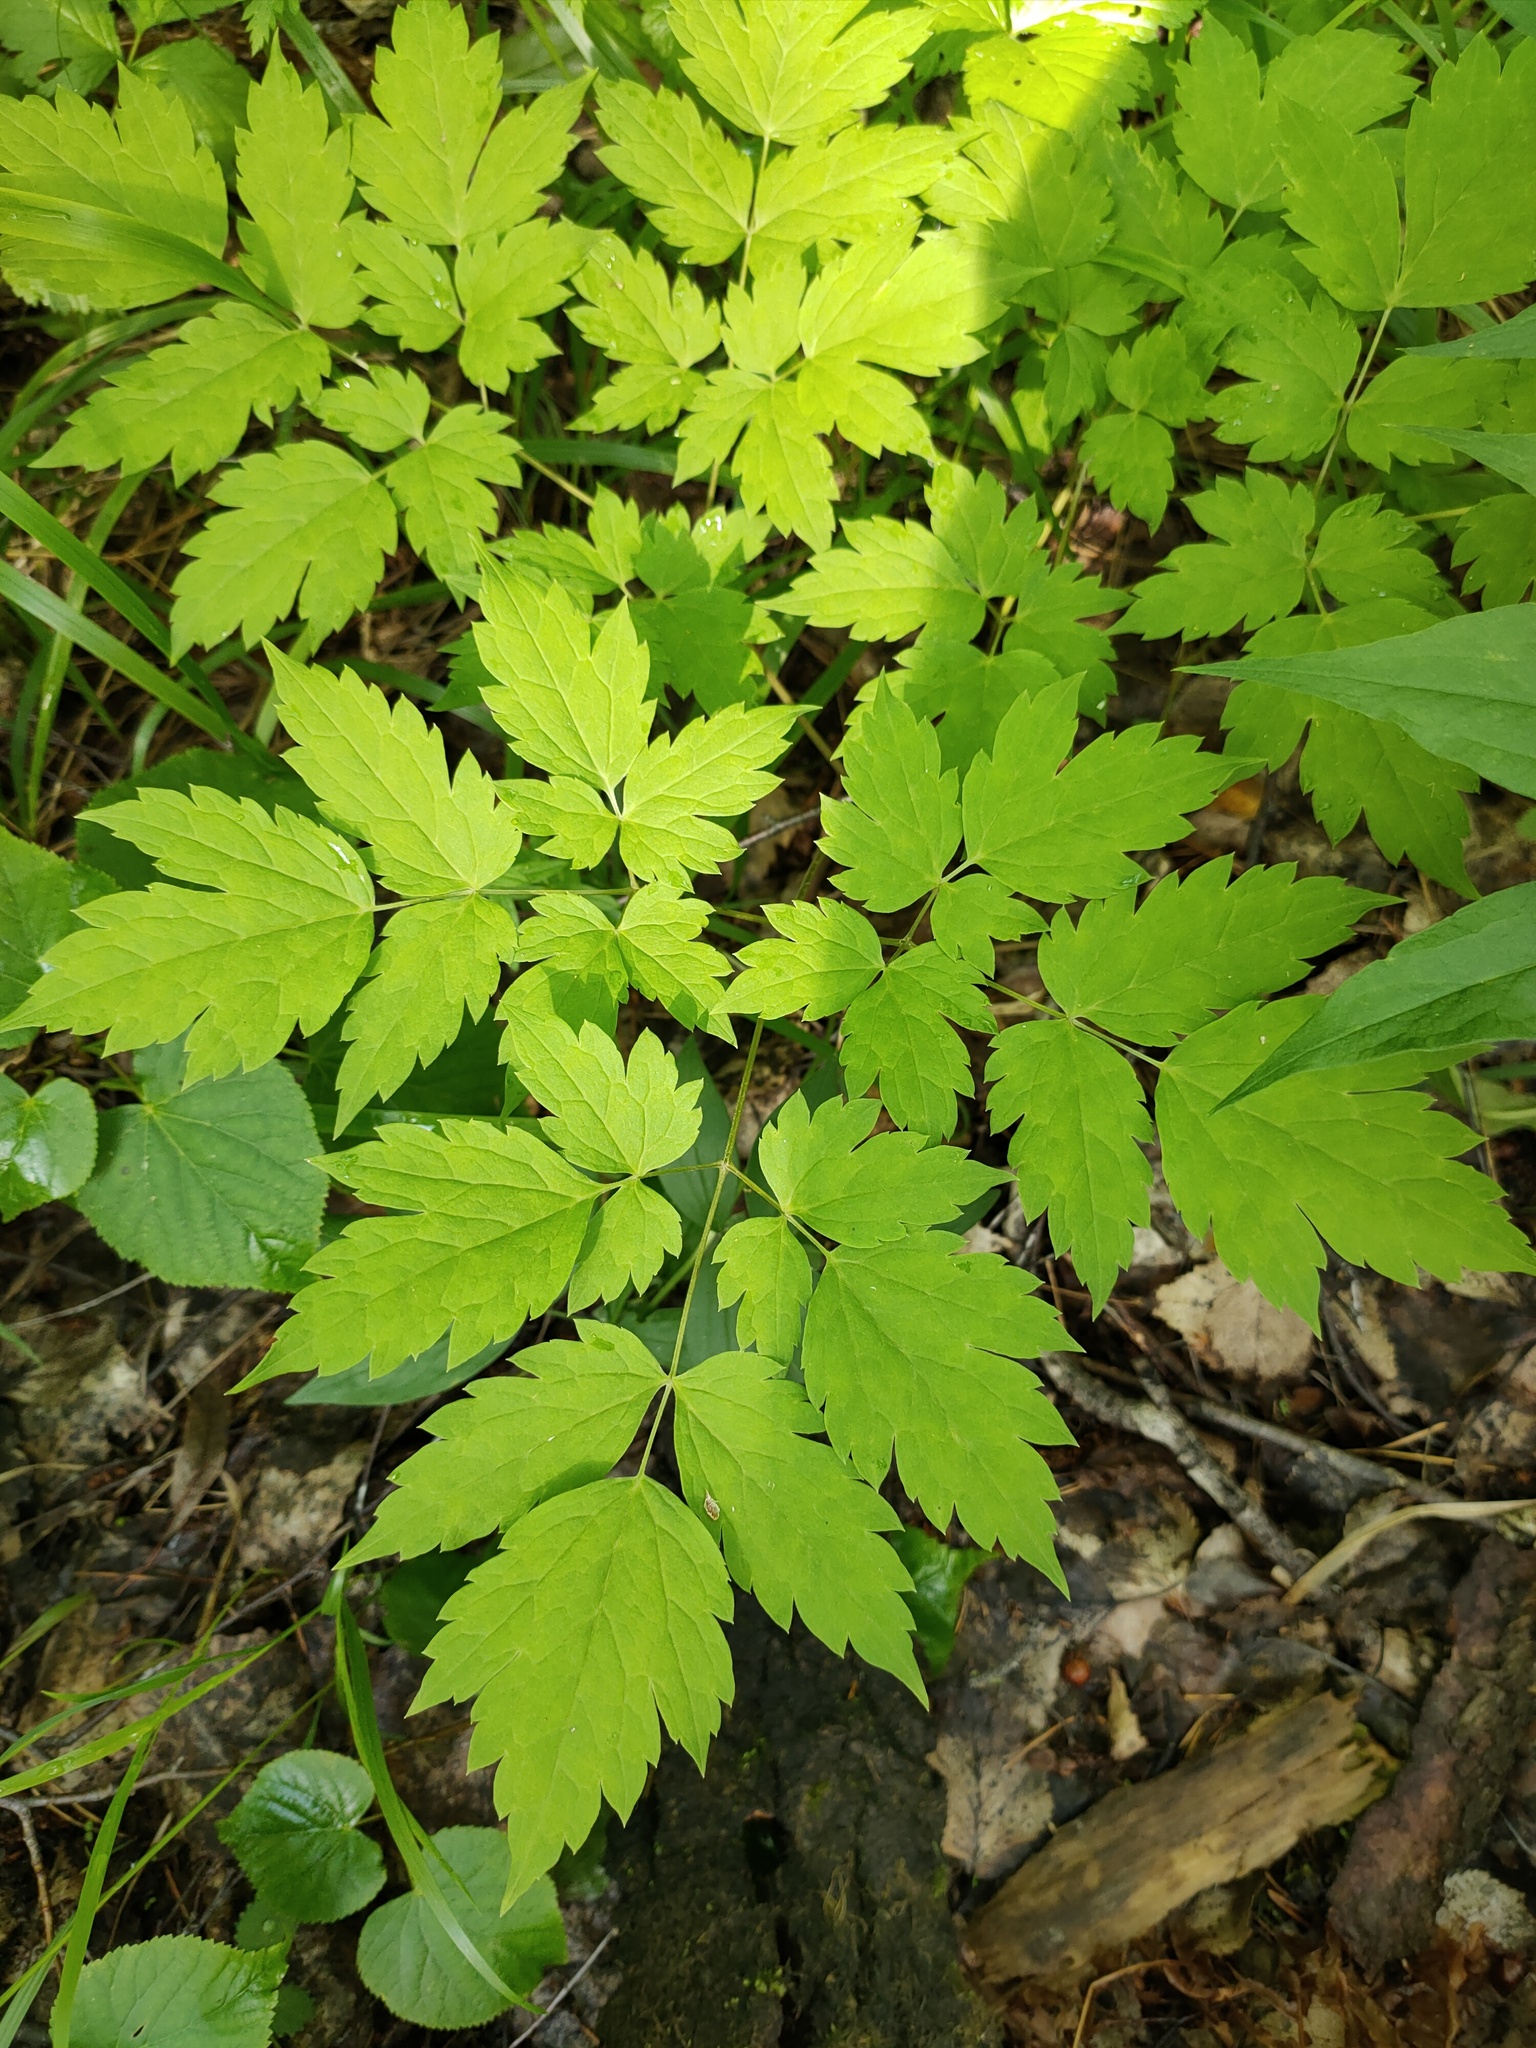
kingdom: Plantae
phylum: Tracheophyta
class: Magnoliopsida
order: Ranunculales
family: Ranunculaceae
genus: Actaea
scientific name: Actaea erythrocarpa
